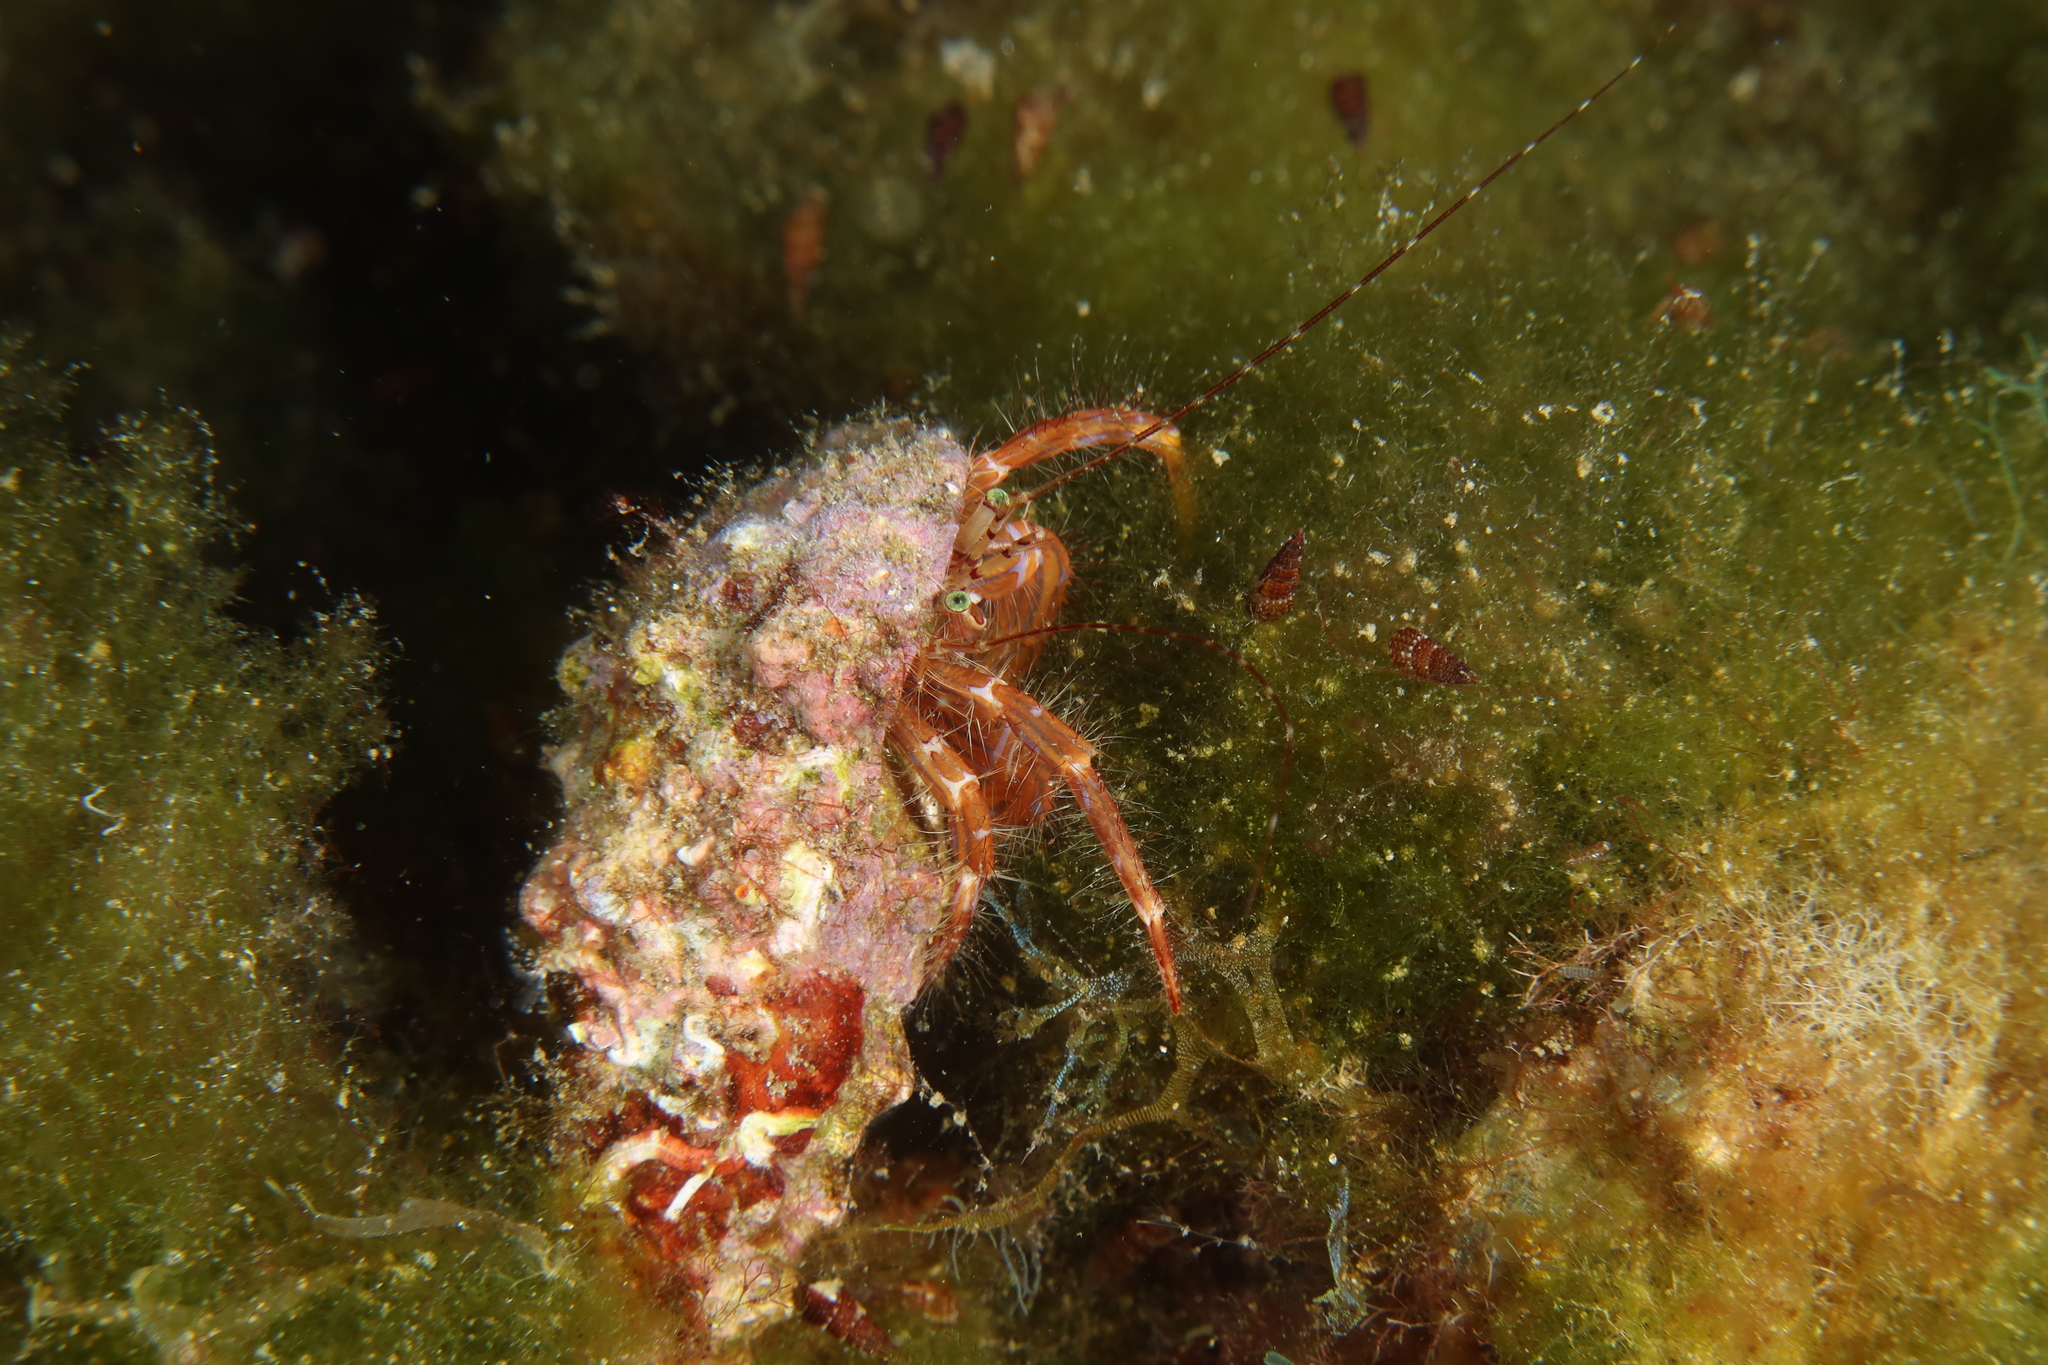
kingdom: Animalia
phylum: Arthropoda
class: Malacostraca
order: Decapoda
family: Paguridae
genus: Pagurus
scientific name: Pagurus anachoretus
